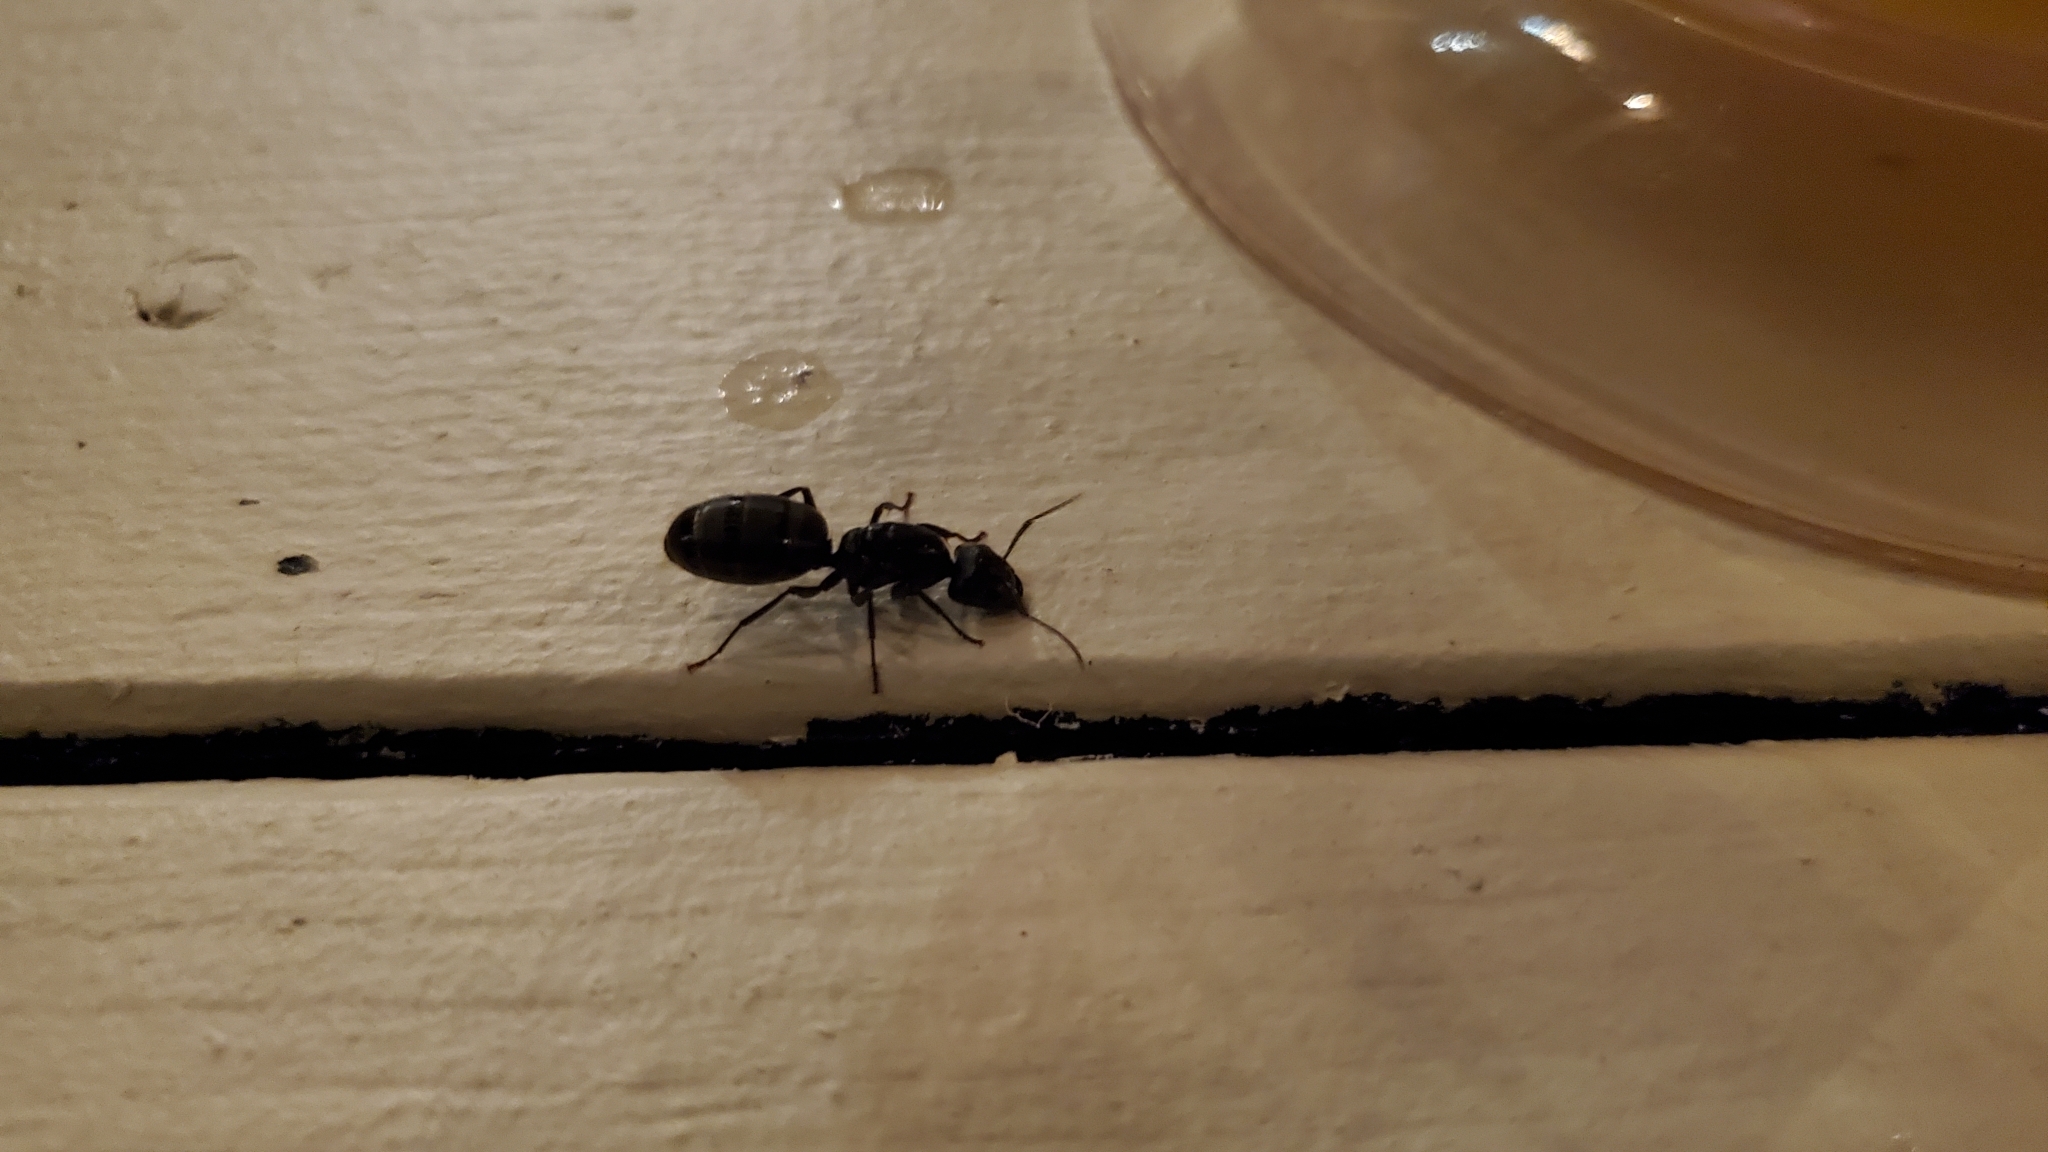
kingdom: Animalia
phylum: Arthropoda
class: Insecta
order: Hymenoptera
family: Formicidae
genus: Camponotus
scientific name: Camponotus pennsylvanicus
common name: Black carpenter ant
